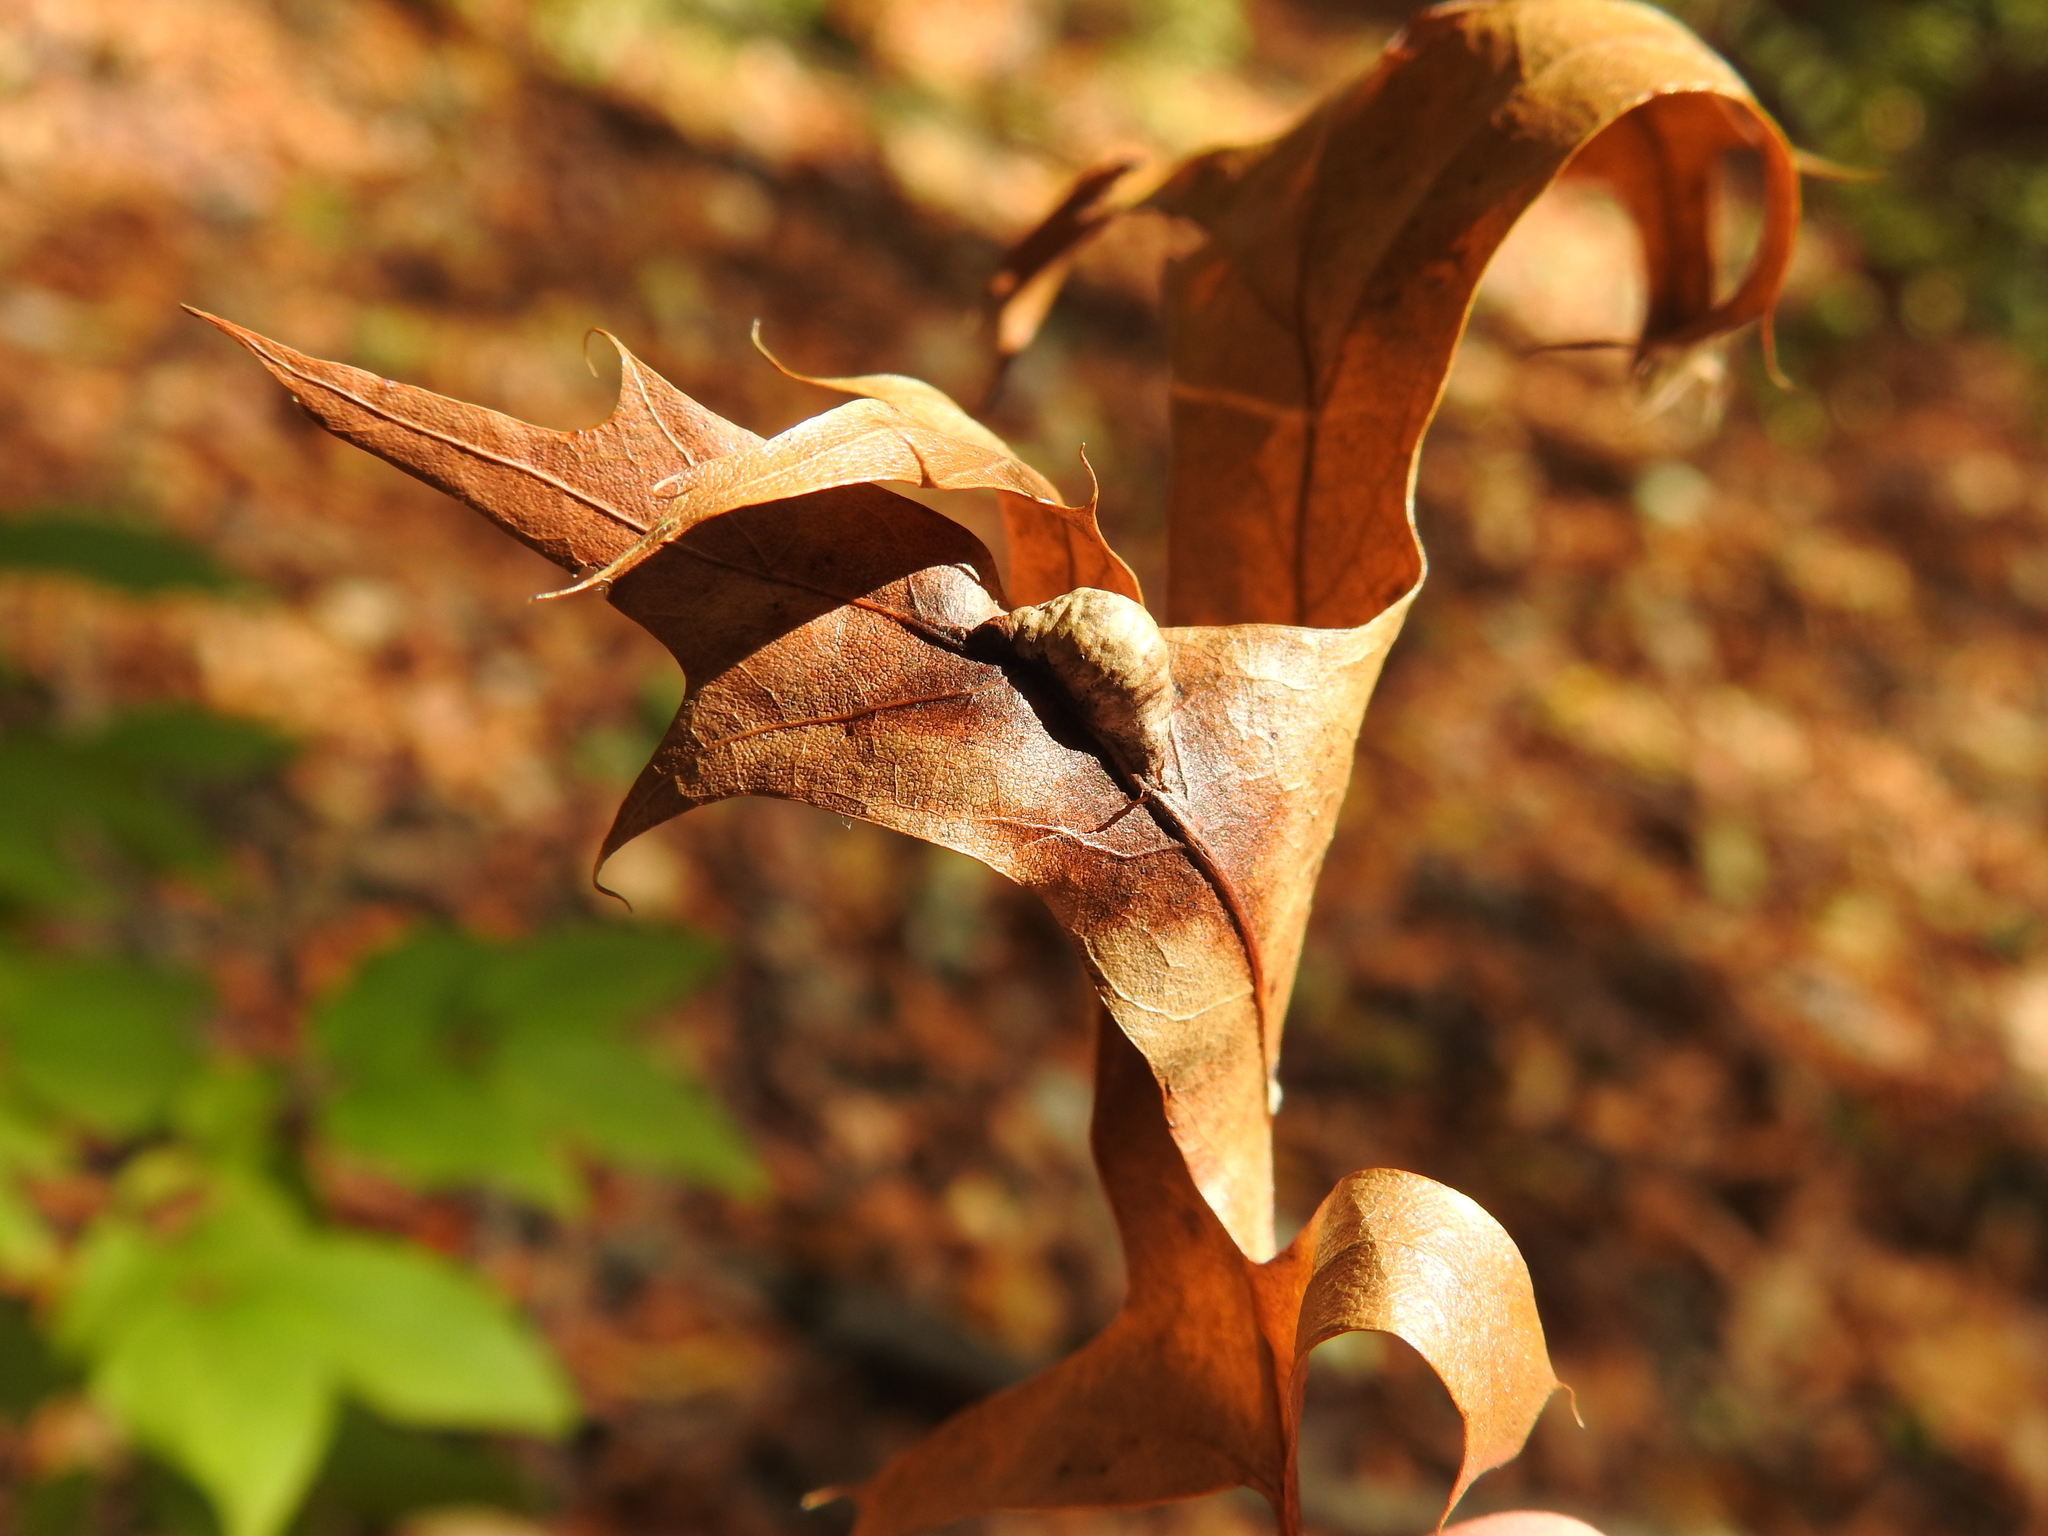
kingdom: Animalia
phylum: Arthropoda
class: Insecta
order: Diptera
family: Cecidomyiidae
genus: Macrodiplosis
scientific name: Macrodiplosis majalis
